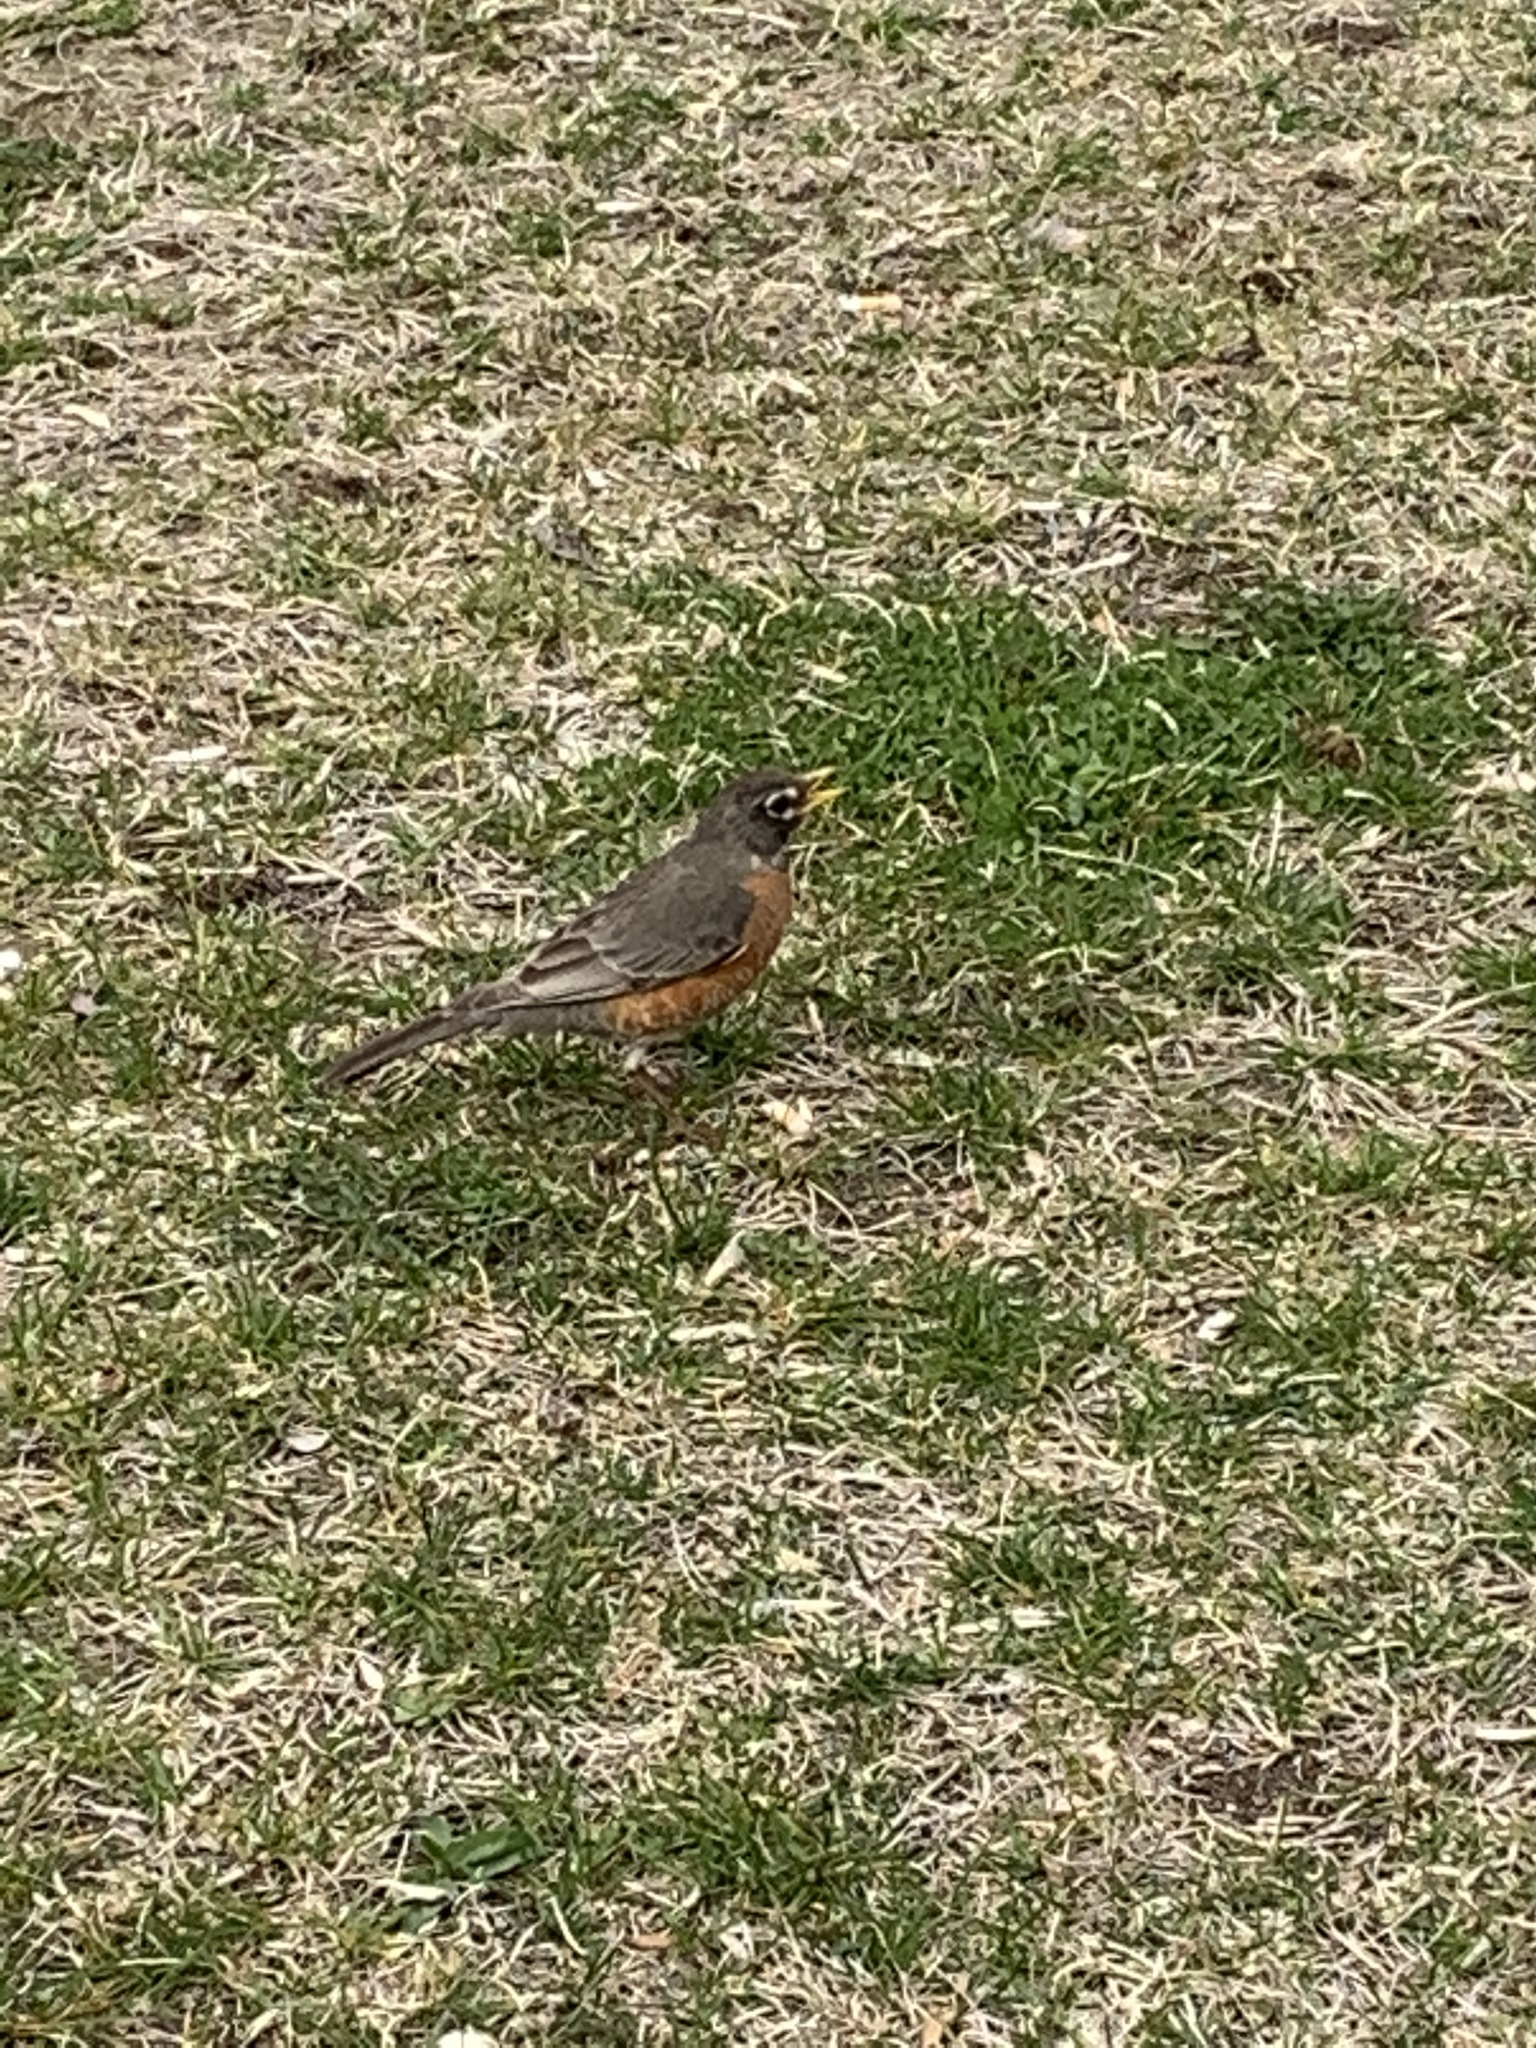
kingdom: Animalia
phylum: Chordata
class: Aves
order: Passeriformes
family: Turdidae
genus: Turdus
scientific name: Turdus migratorius
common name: American robin
